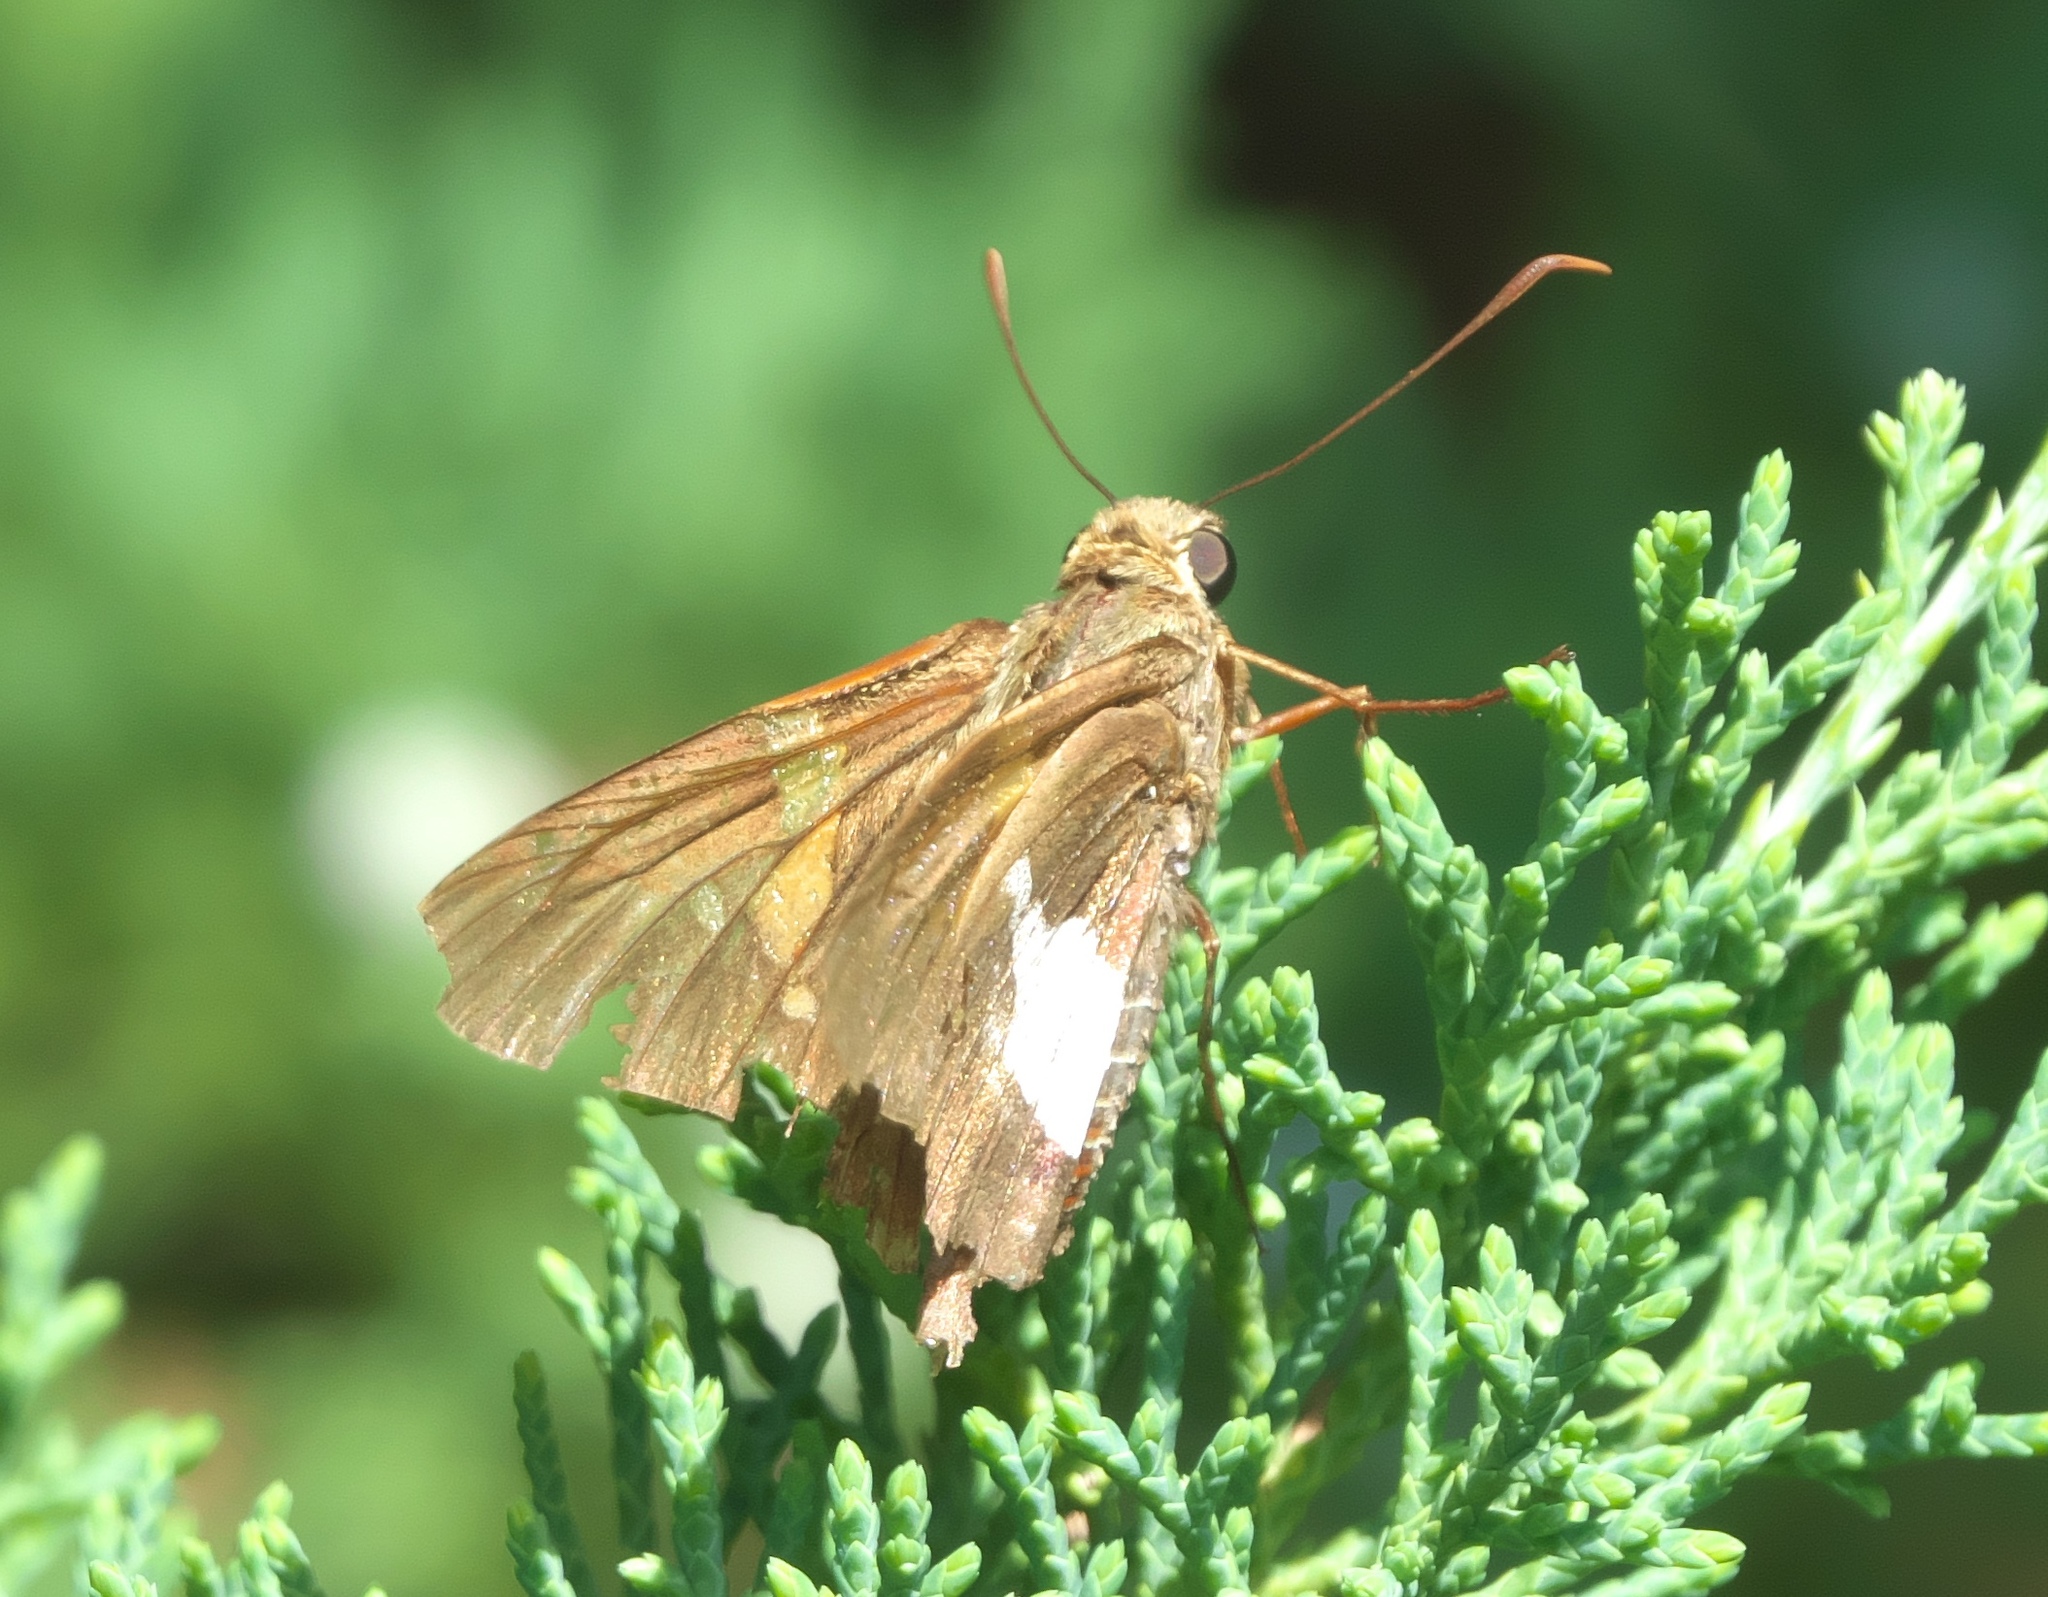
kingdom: Animalia
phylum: Arthropoda
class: Insecta
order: Lepidoptera
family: Hesperiidae
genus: Epargyreus
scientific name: Epargyreus clarus
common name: Silver-spotted skipper
